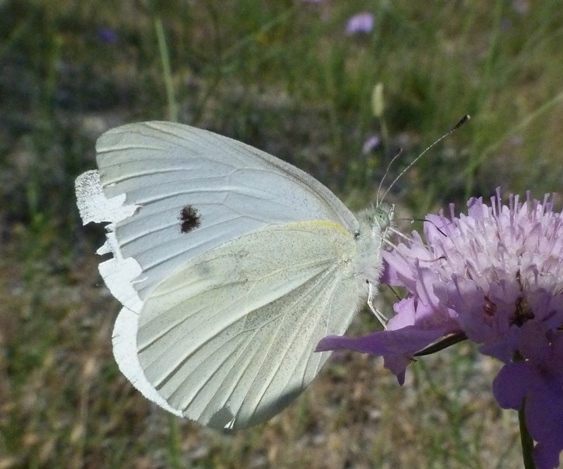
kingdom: Animalia
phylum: Arthropoda
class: Insecta
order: Lepidoptera
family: Pieridae
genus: Pieris
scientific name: Pieris rapae
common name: Small white
